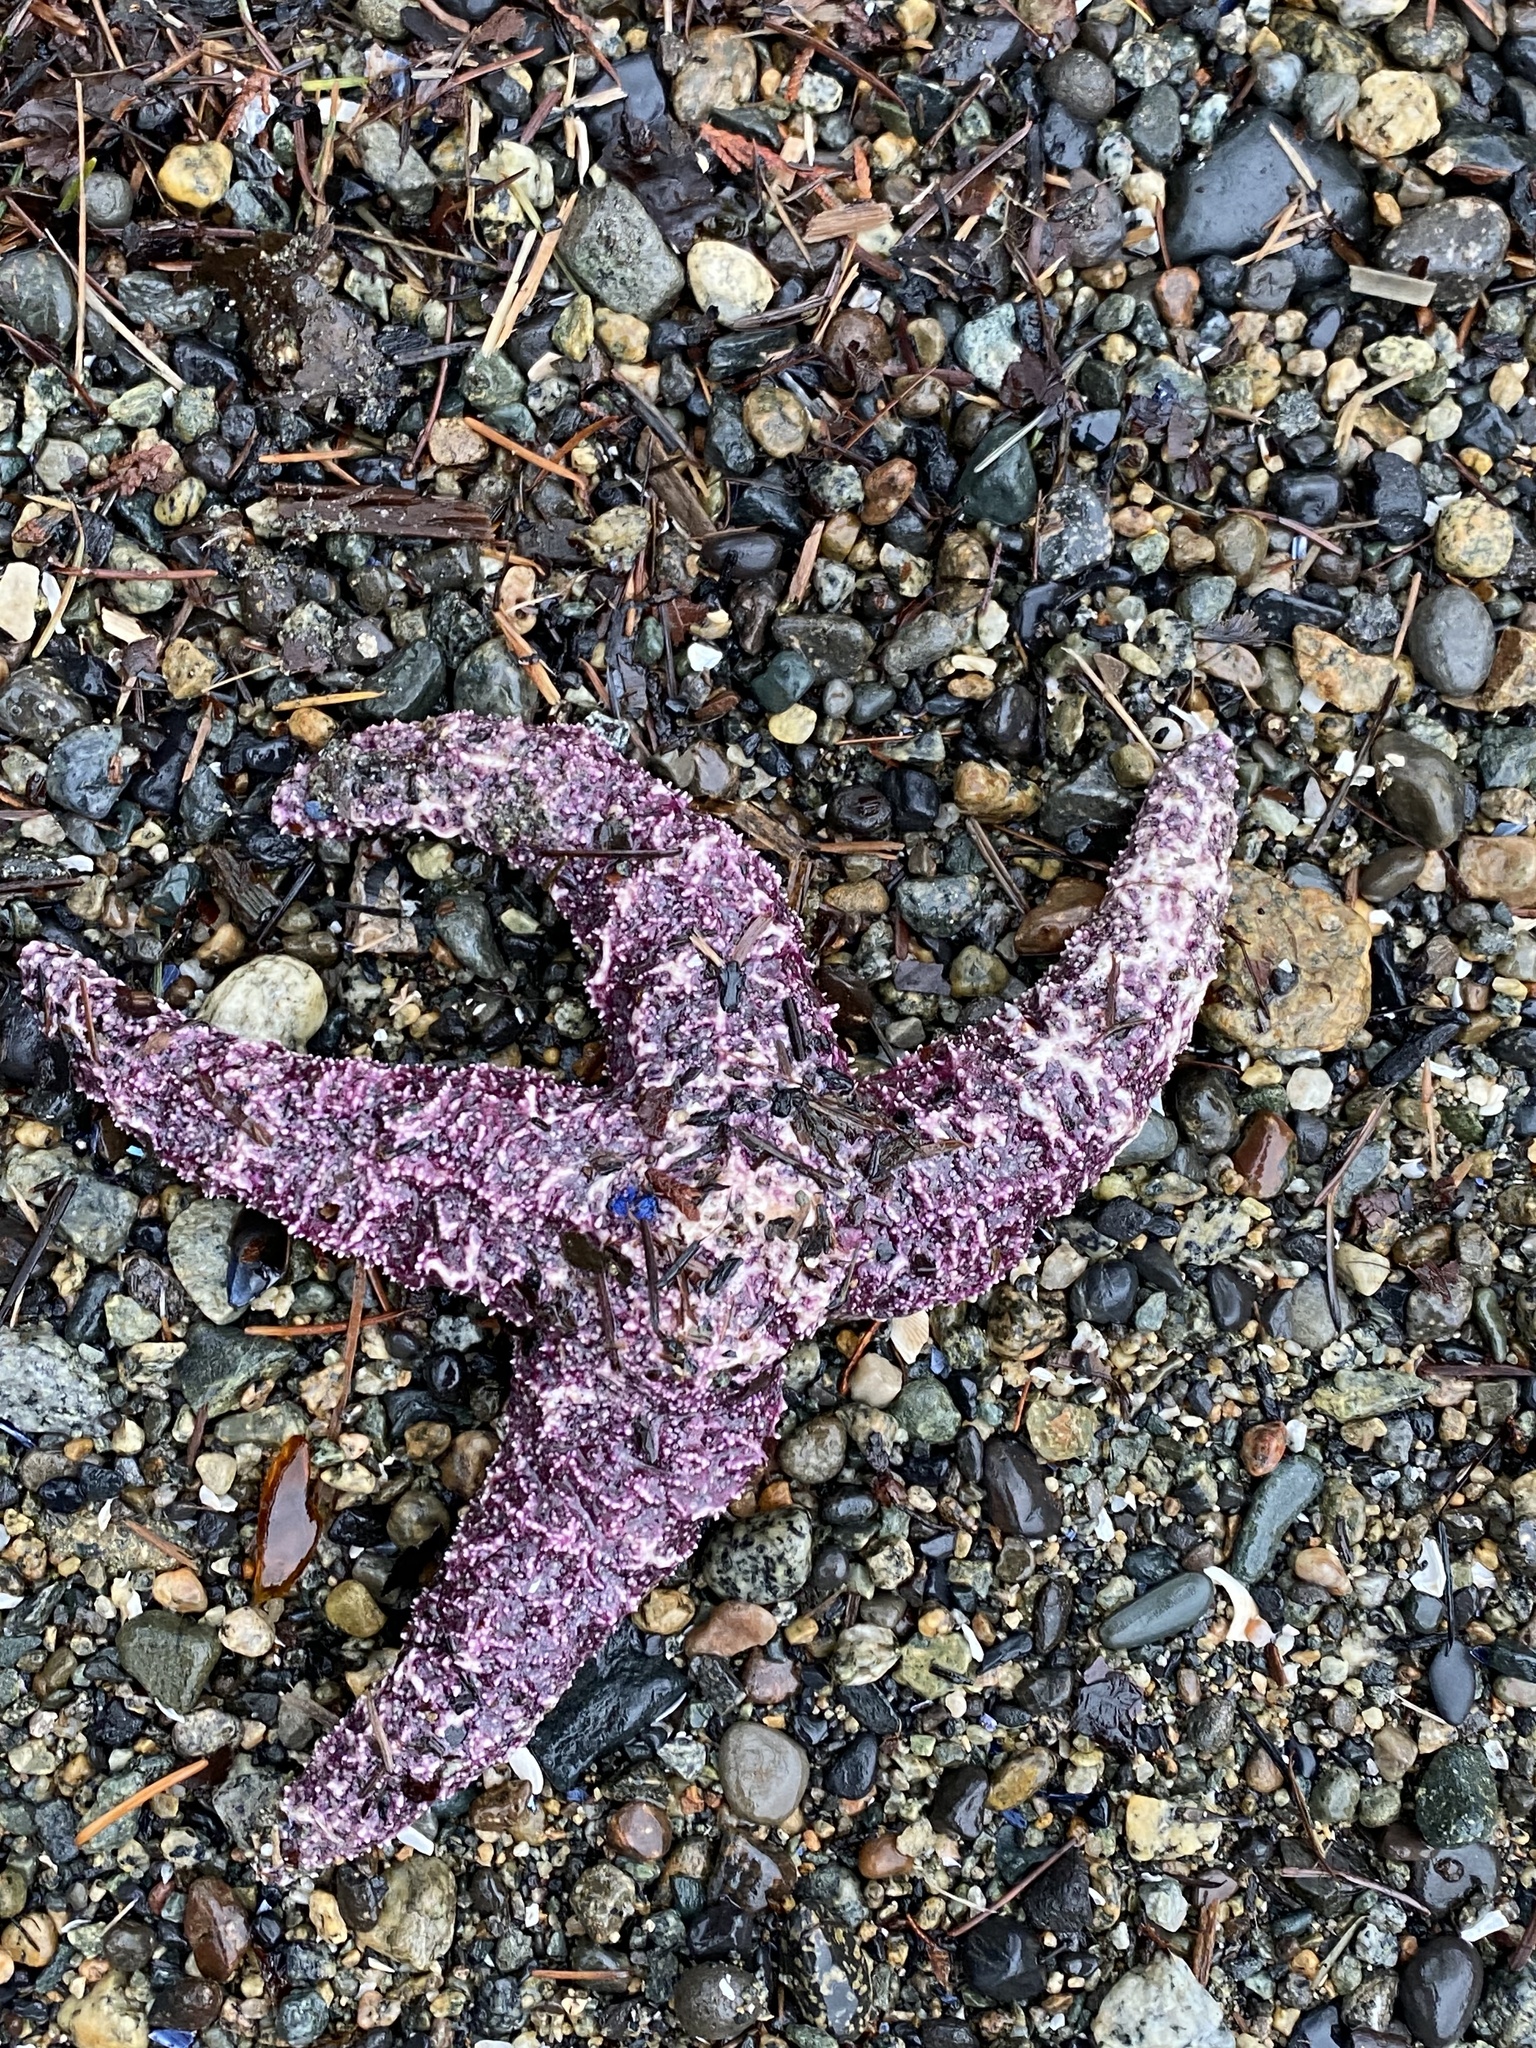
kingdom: Animalia
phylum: Echinodermata
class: Asteroidea
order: Forcipulatida
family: Asteriidae
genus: Pisaster
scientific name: Pisaster ochraceus
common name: Ochre stars
